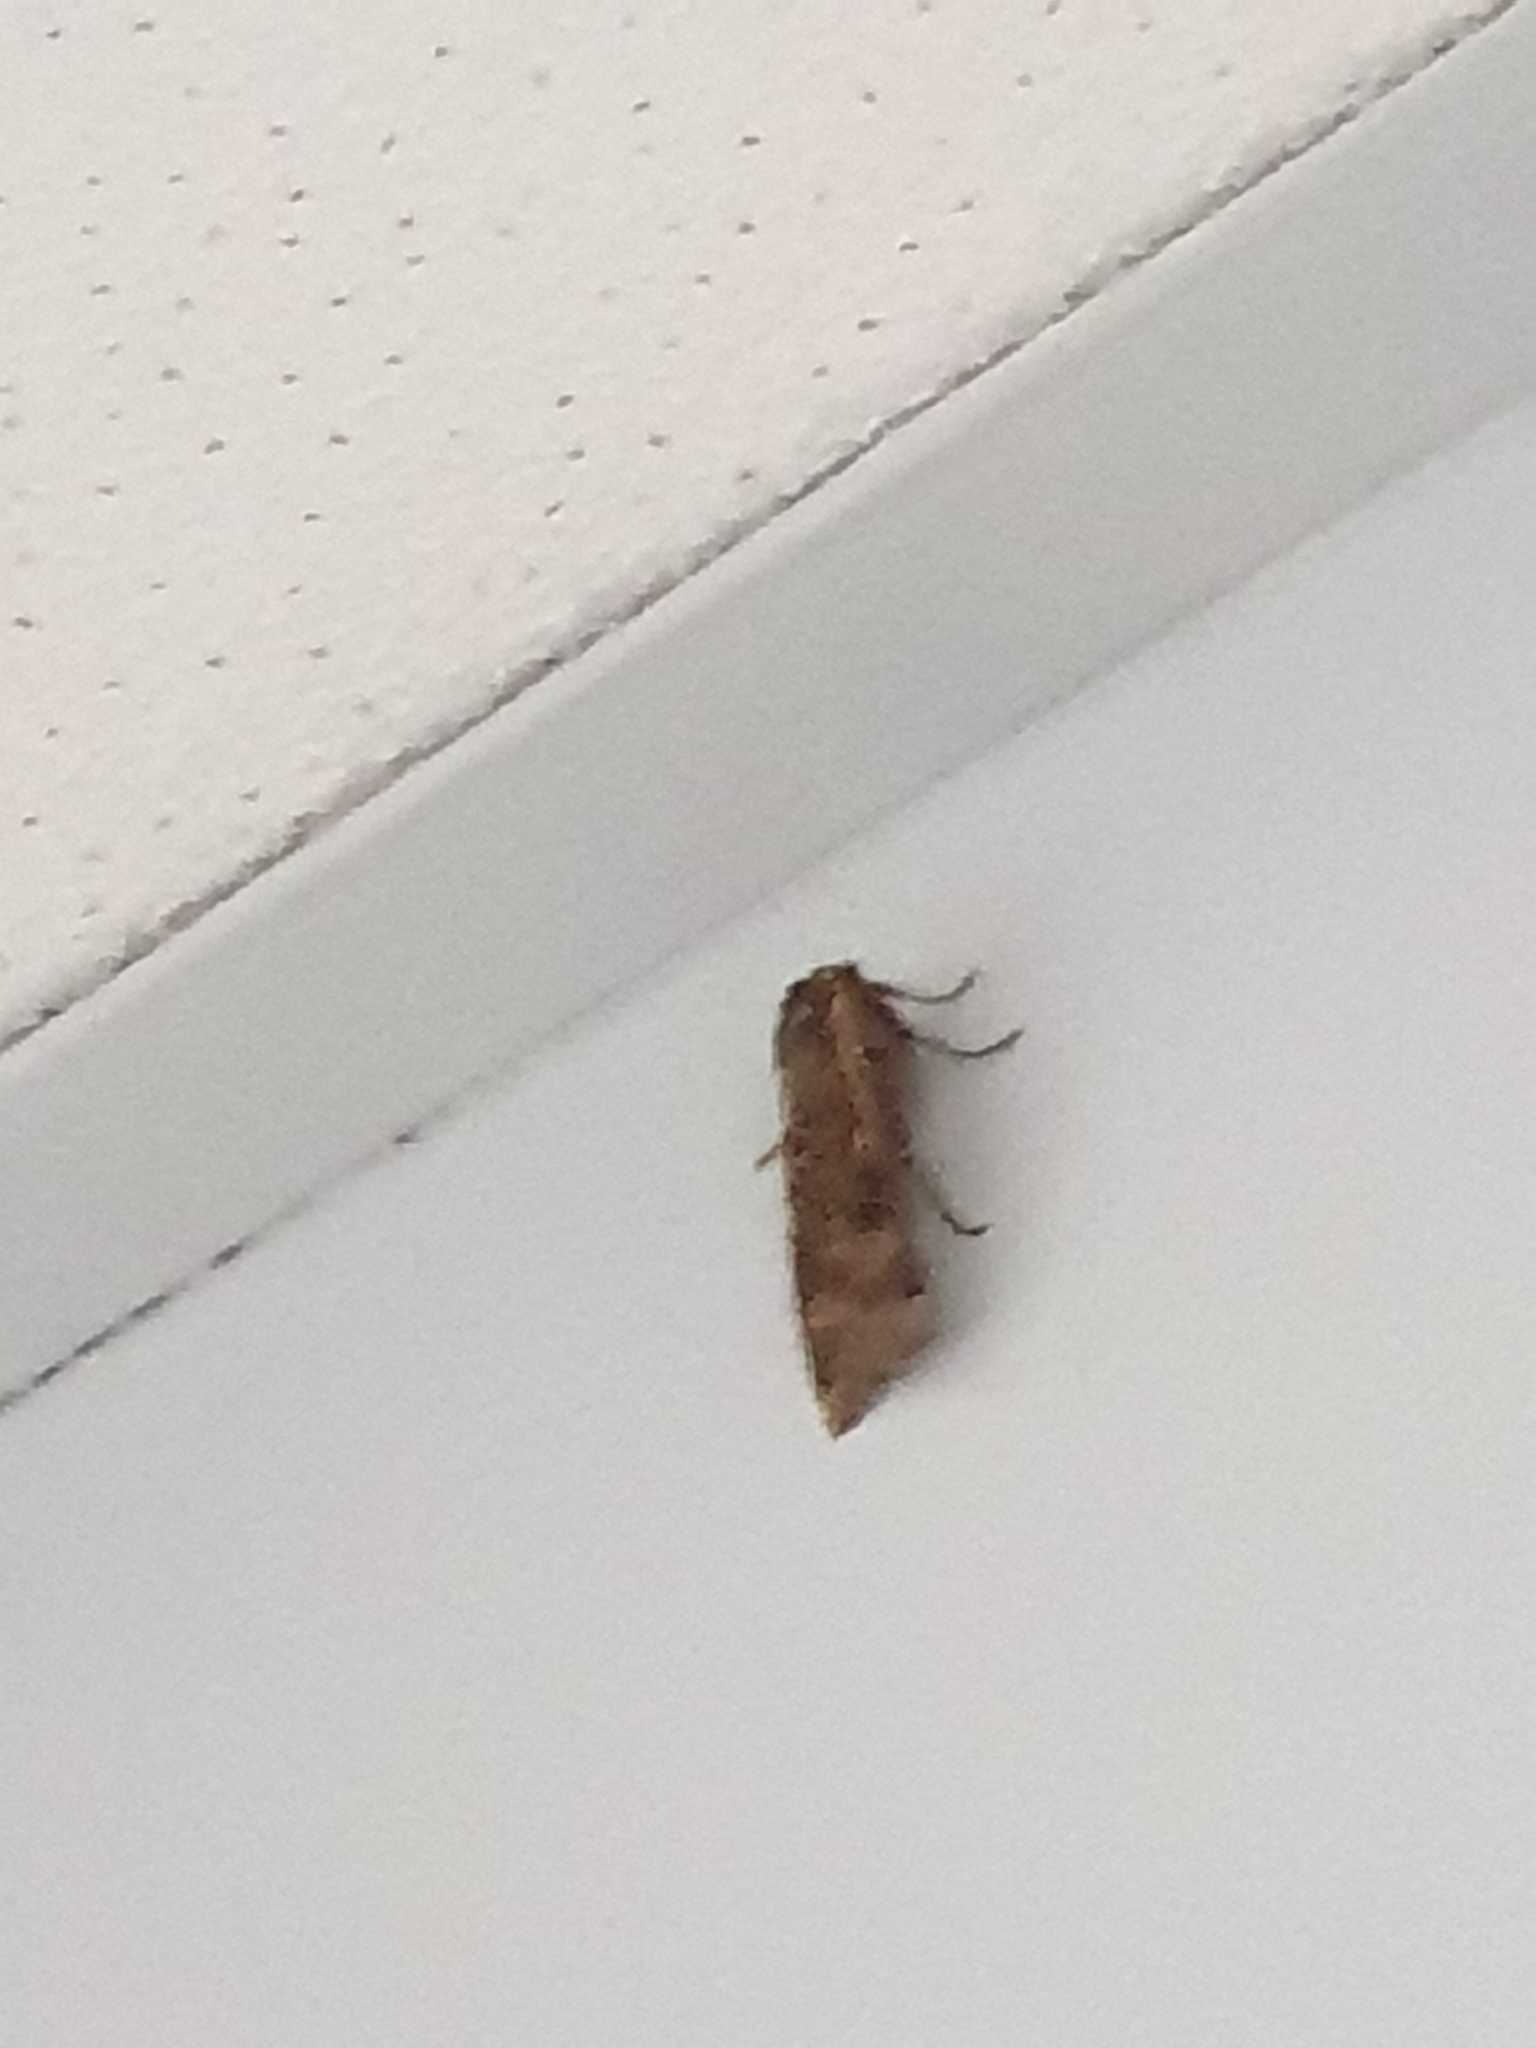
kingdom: Animalia
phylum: Arthropoda
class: Insecta
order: Lepidoptera
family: Noctuidae
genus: Noctua
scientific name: Noctua pronuba
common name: Large yellow underwing
